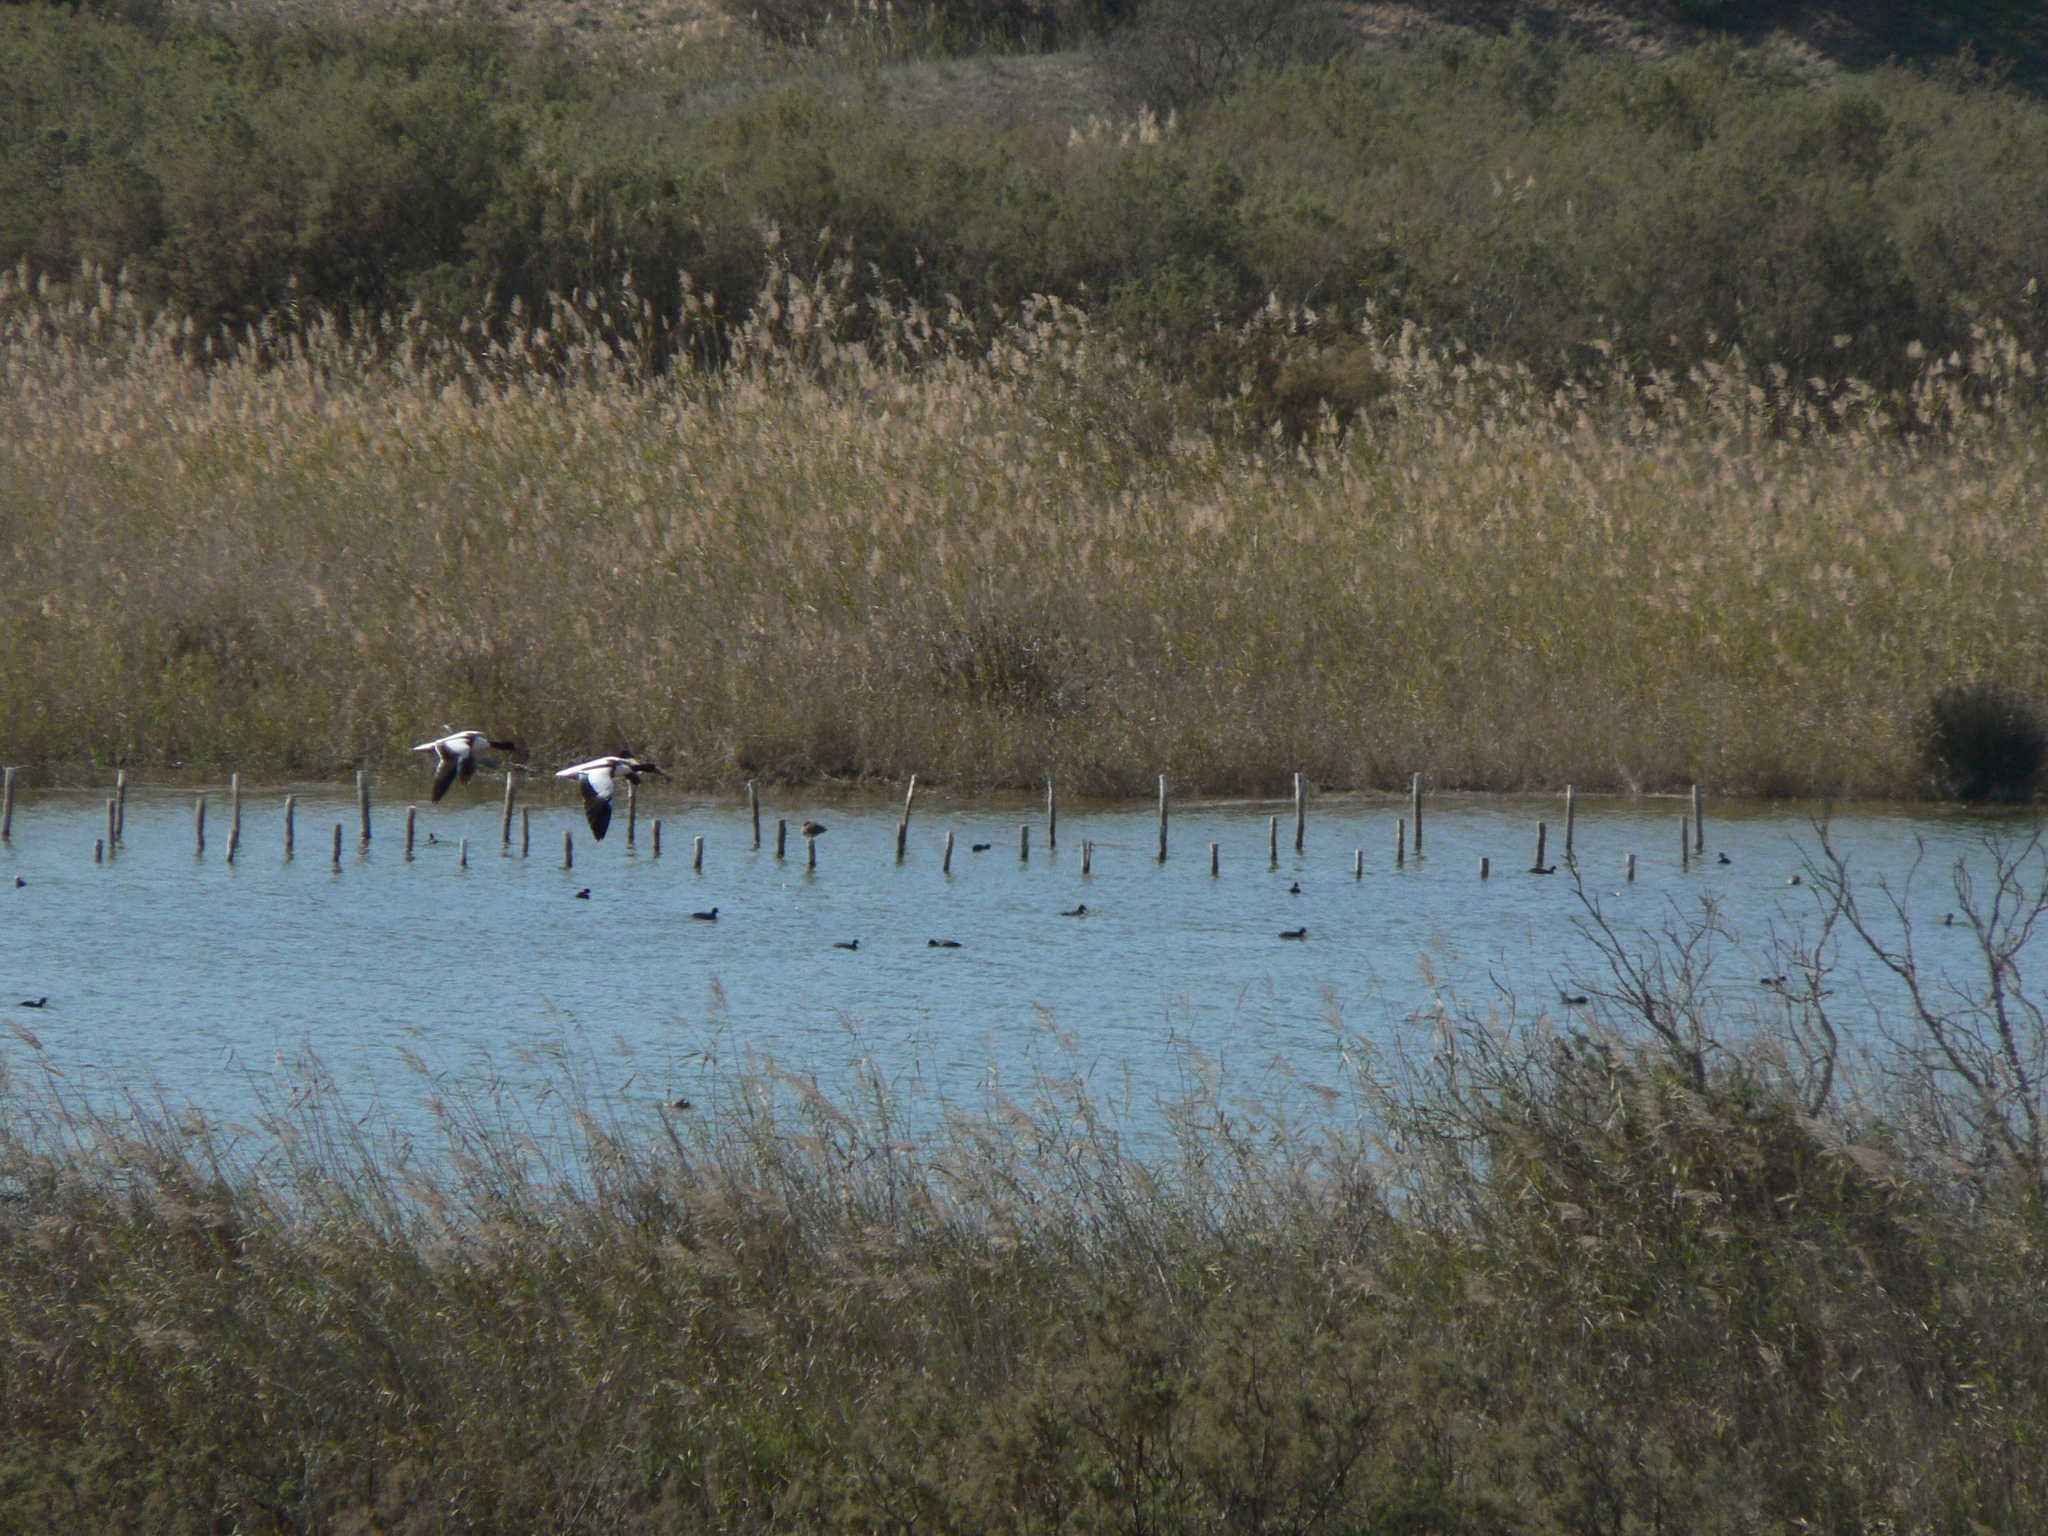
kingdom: Animalia
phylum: Chordata
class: Aves
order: Anseriformes
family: Anatidae
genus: Tadorna
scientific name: Tadorna tadorna
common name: Common shelduck
